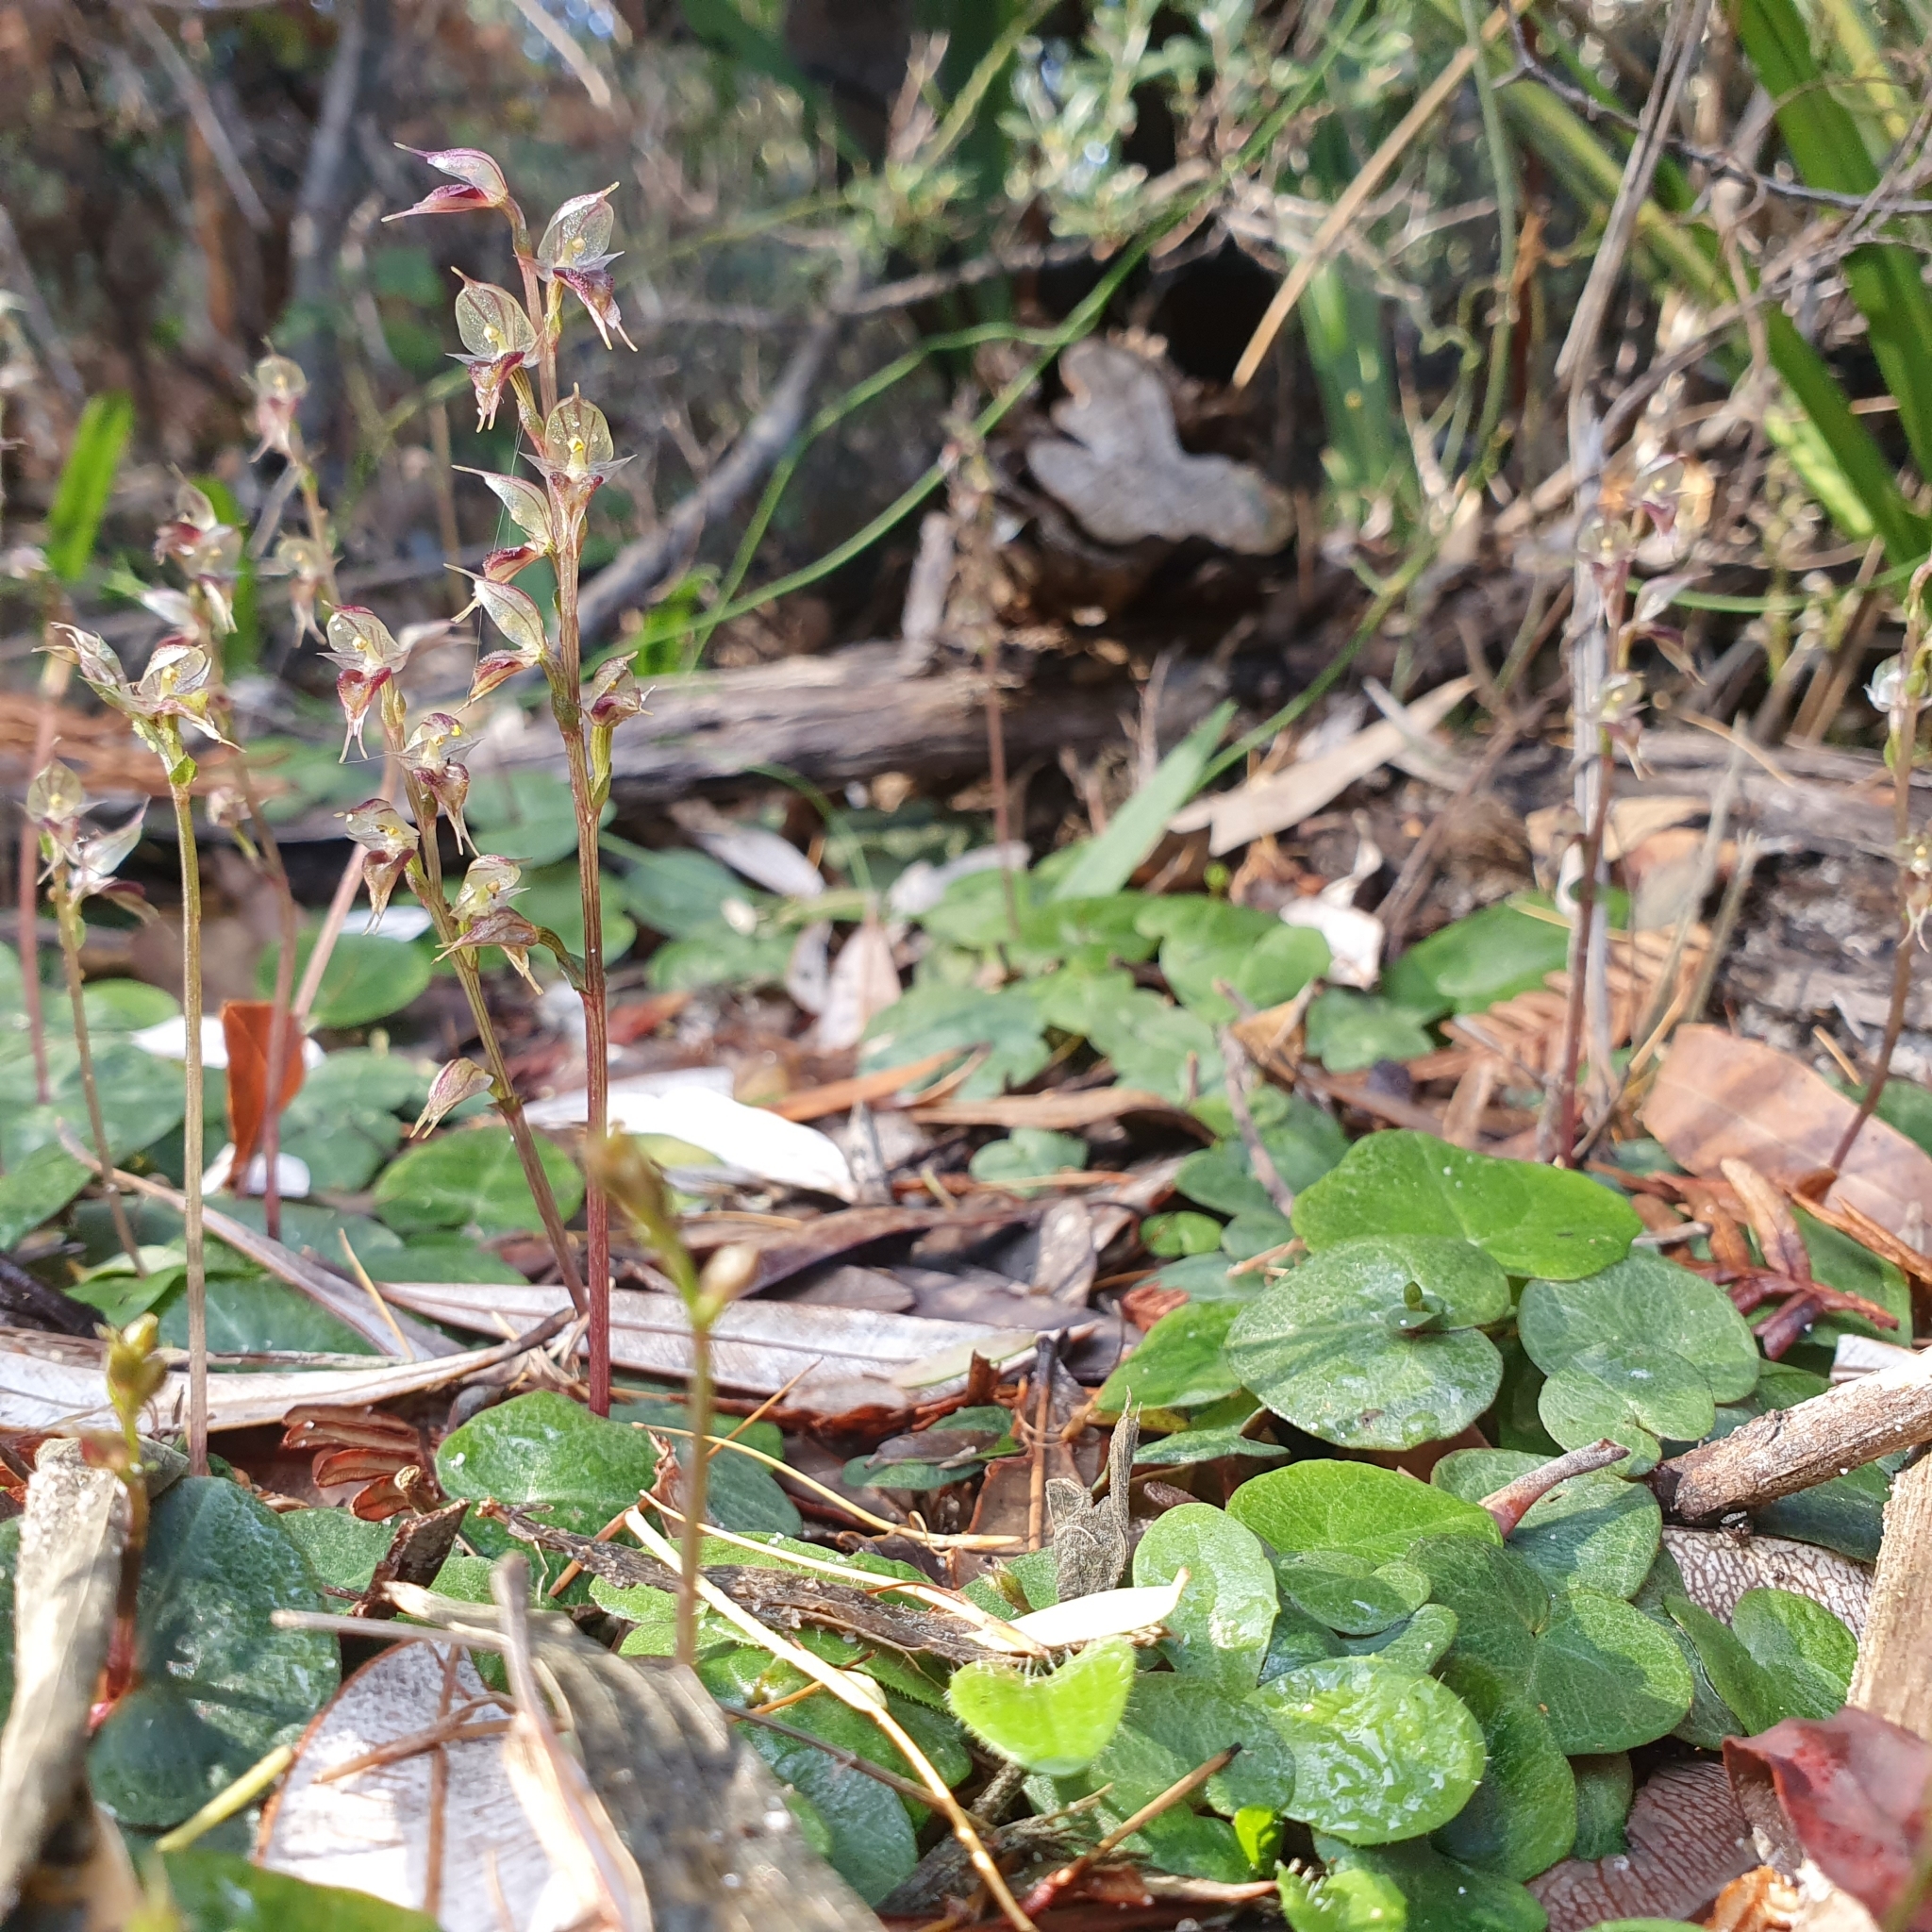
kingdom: Plantae
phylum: Tracheophyta
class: Liliopsida
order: Asparagales
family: Orchidaceae
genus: Acianthus
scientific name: Acianthus fornicatus
